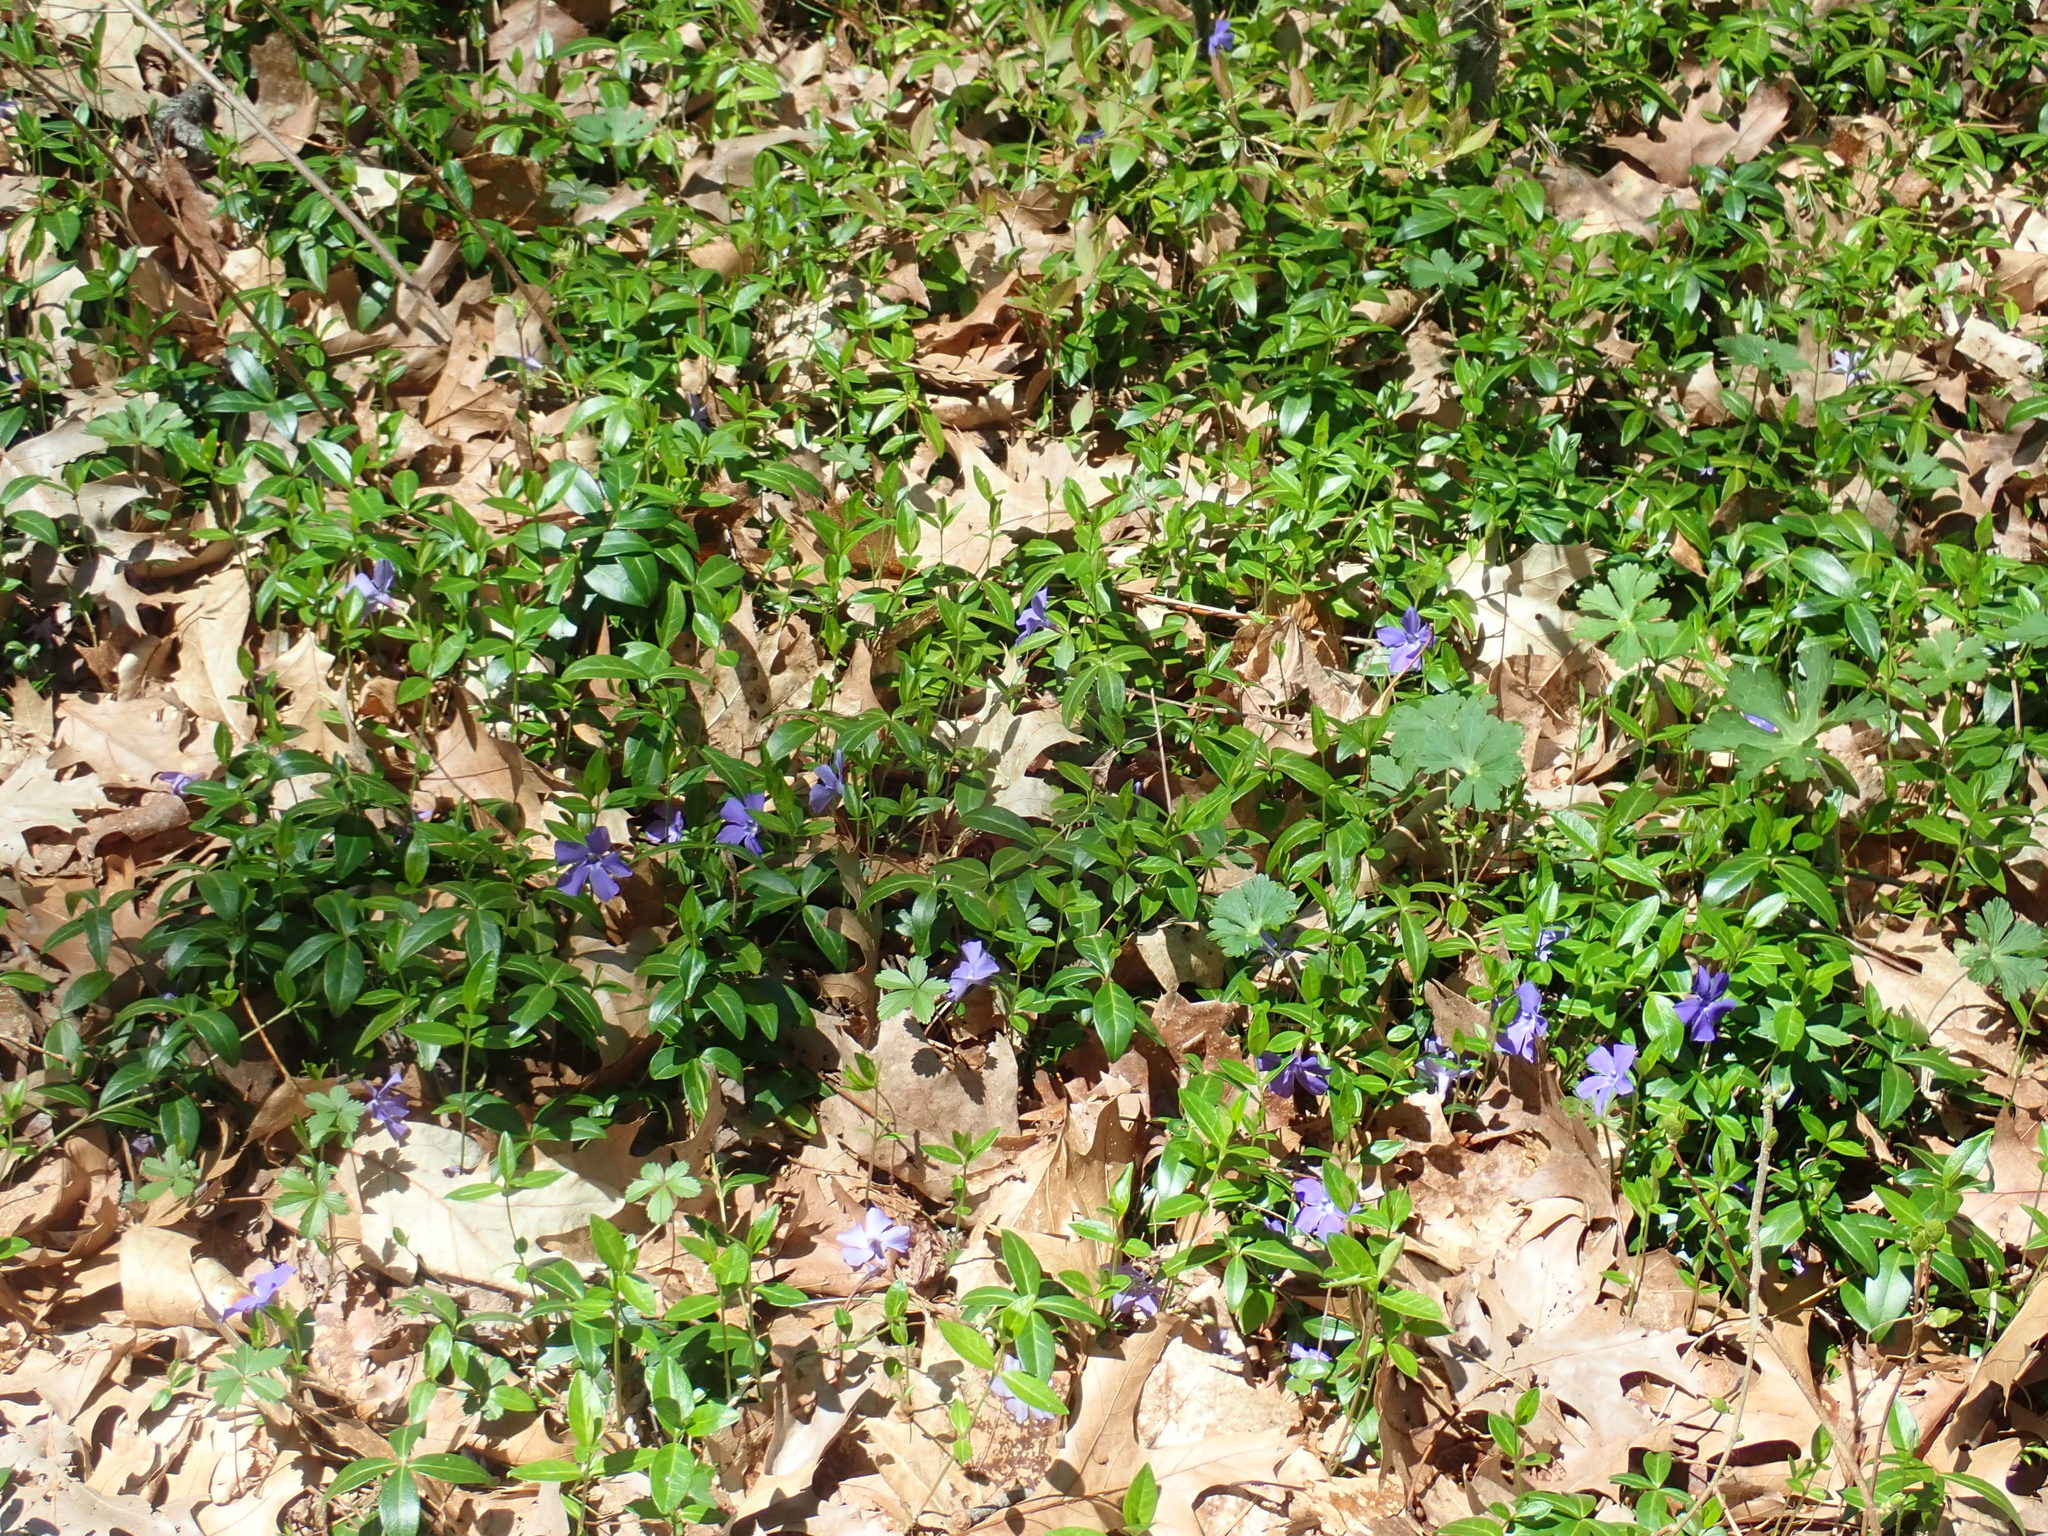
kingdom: Plantae
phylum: Tracheophyta
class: Magnoliopsida
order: Gentianales
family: Apocynaceae
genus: Vinca
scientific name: Vinca minor
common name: Lesser periwinkle
